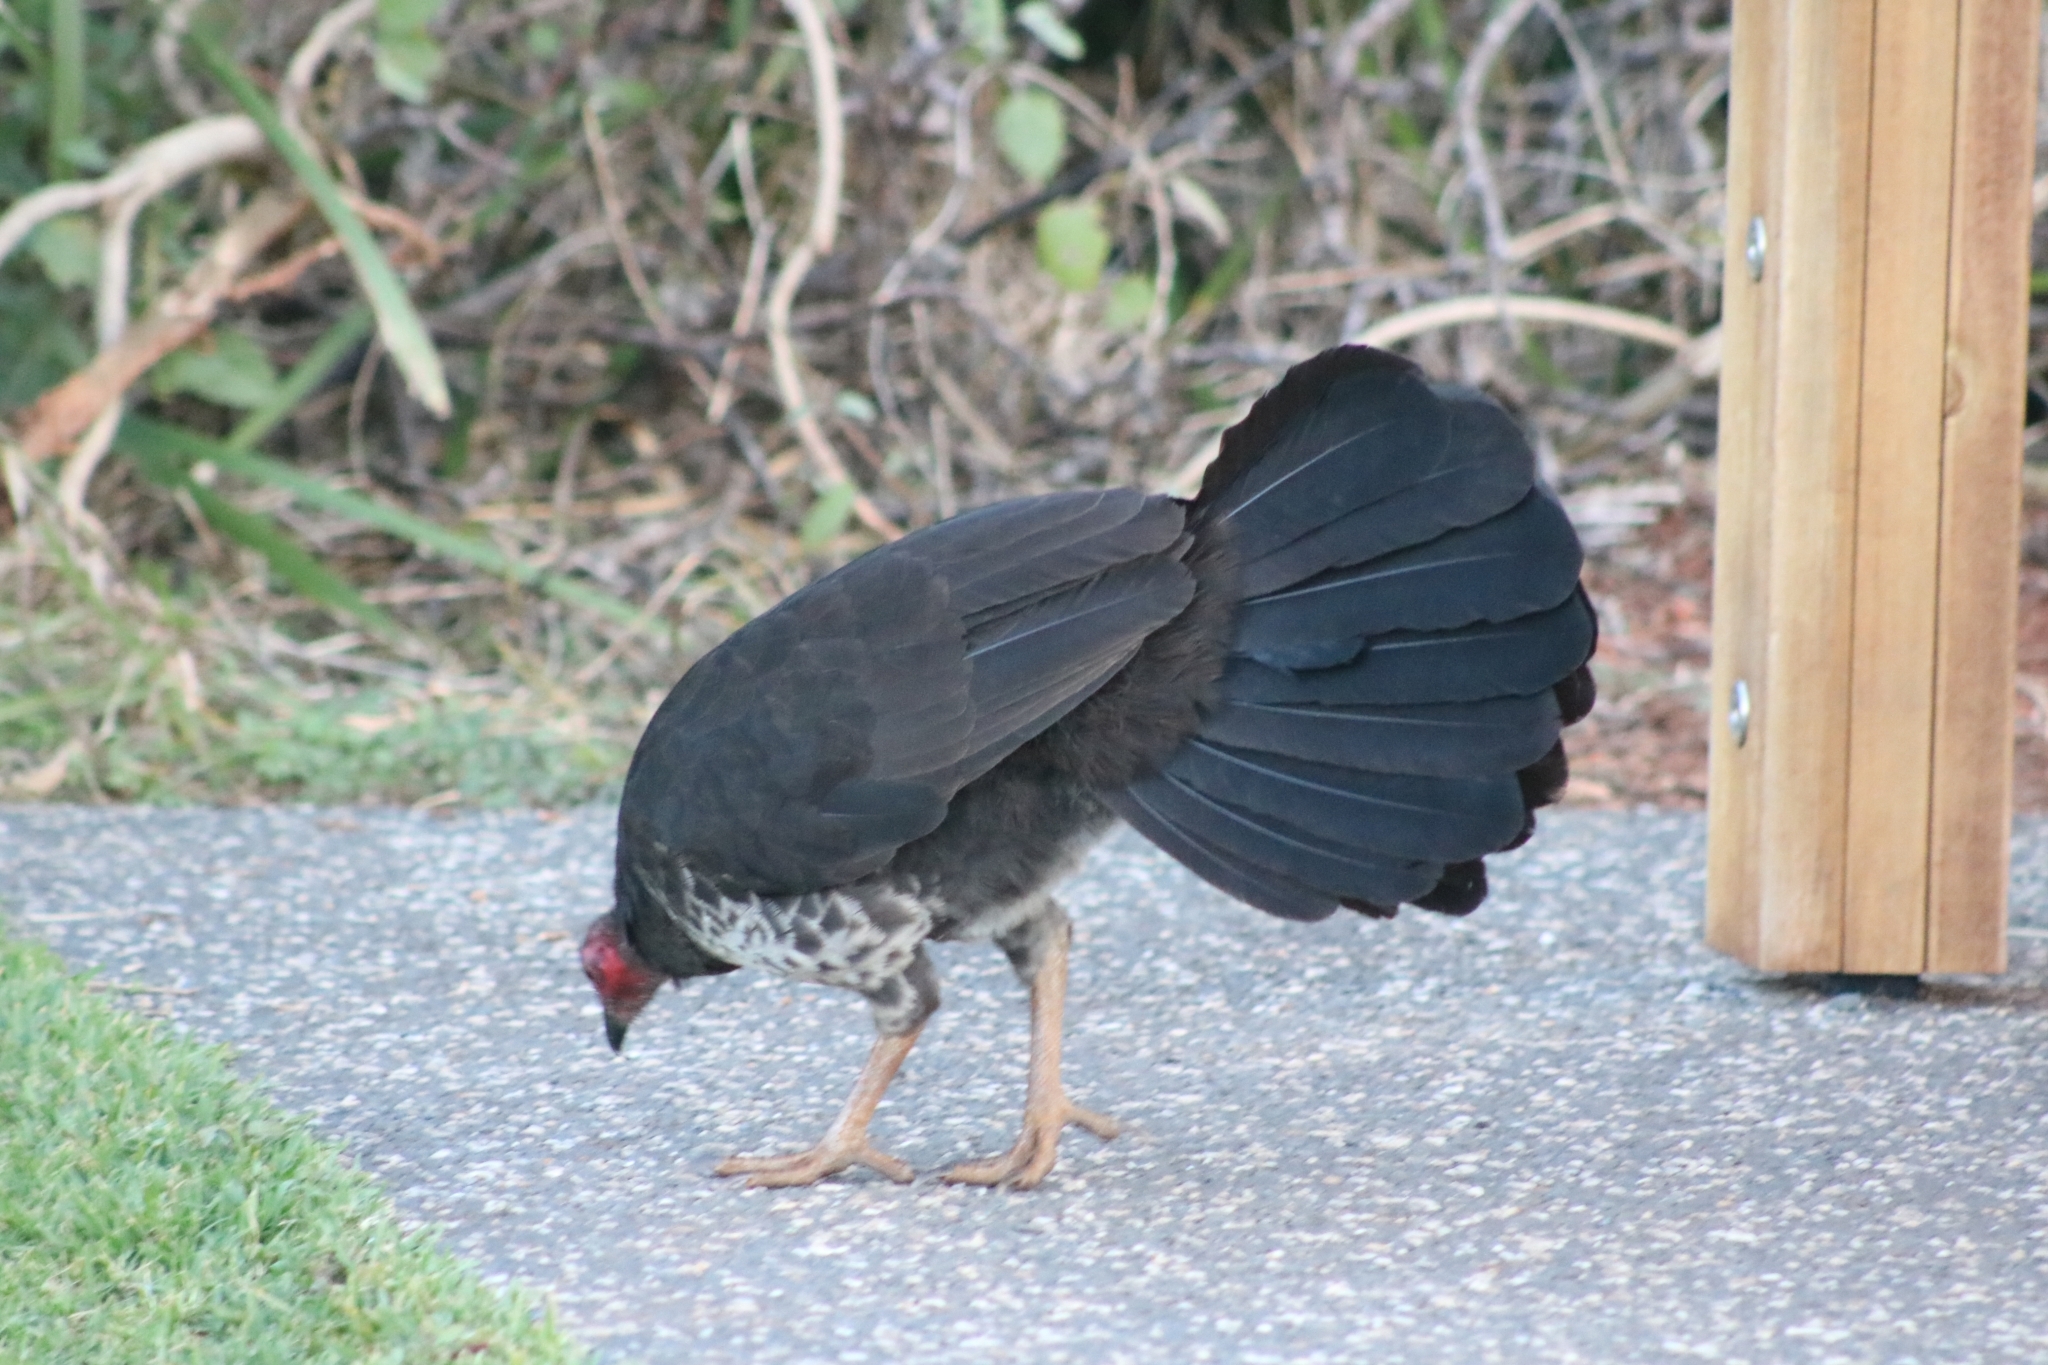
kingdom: Animalia
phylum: Chordata
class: Aves
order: Galliformes
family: Megapodiidae
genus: Alectura
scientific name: Alectura lathami
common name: Australian brushturkey
